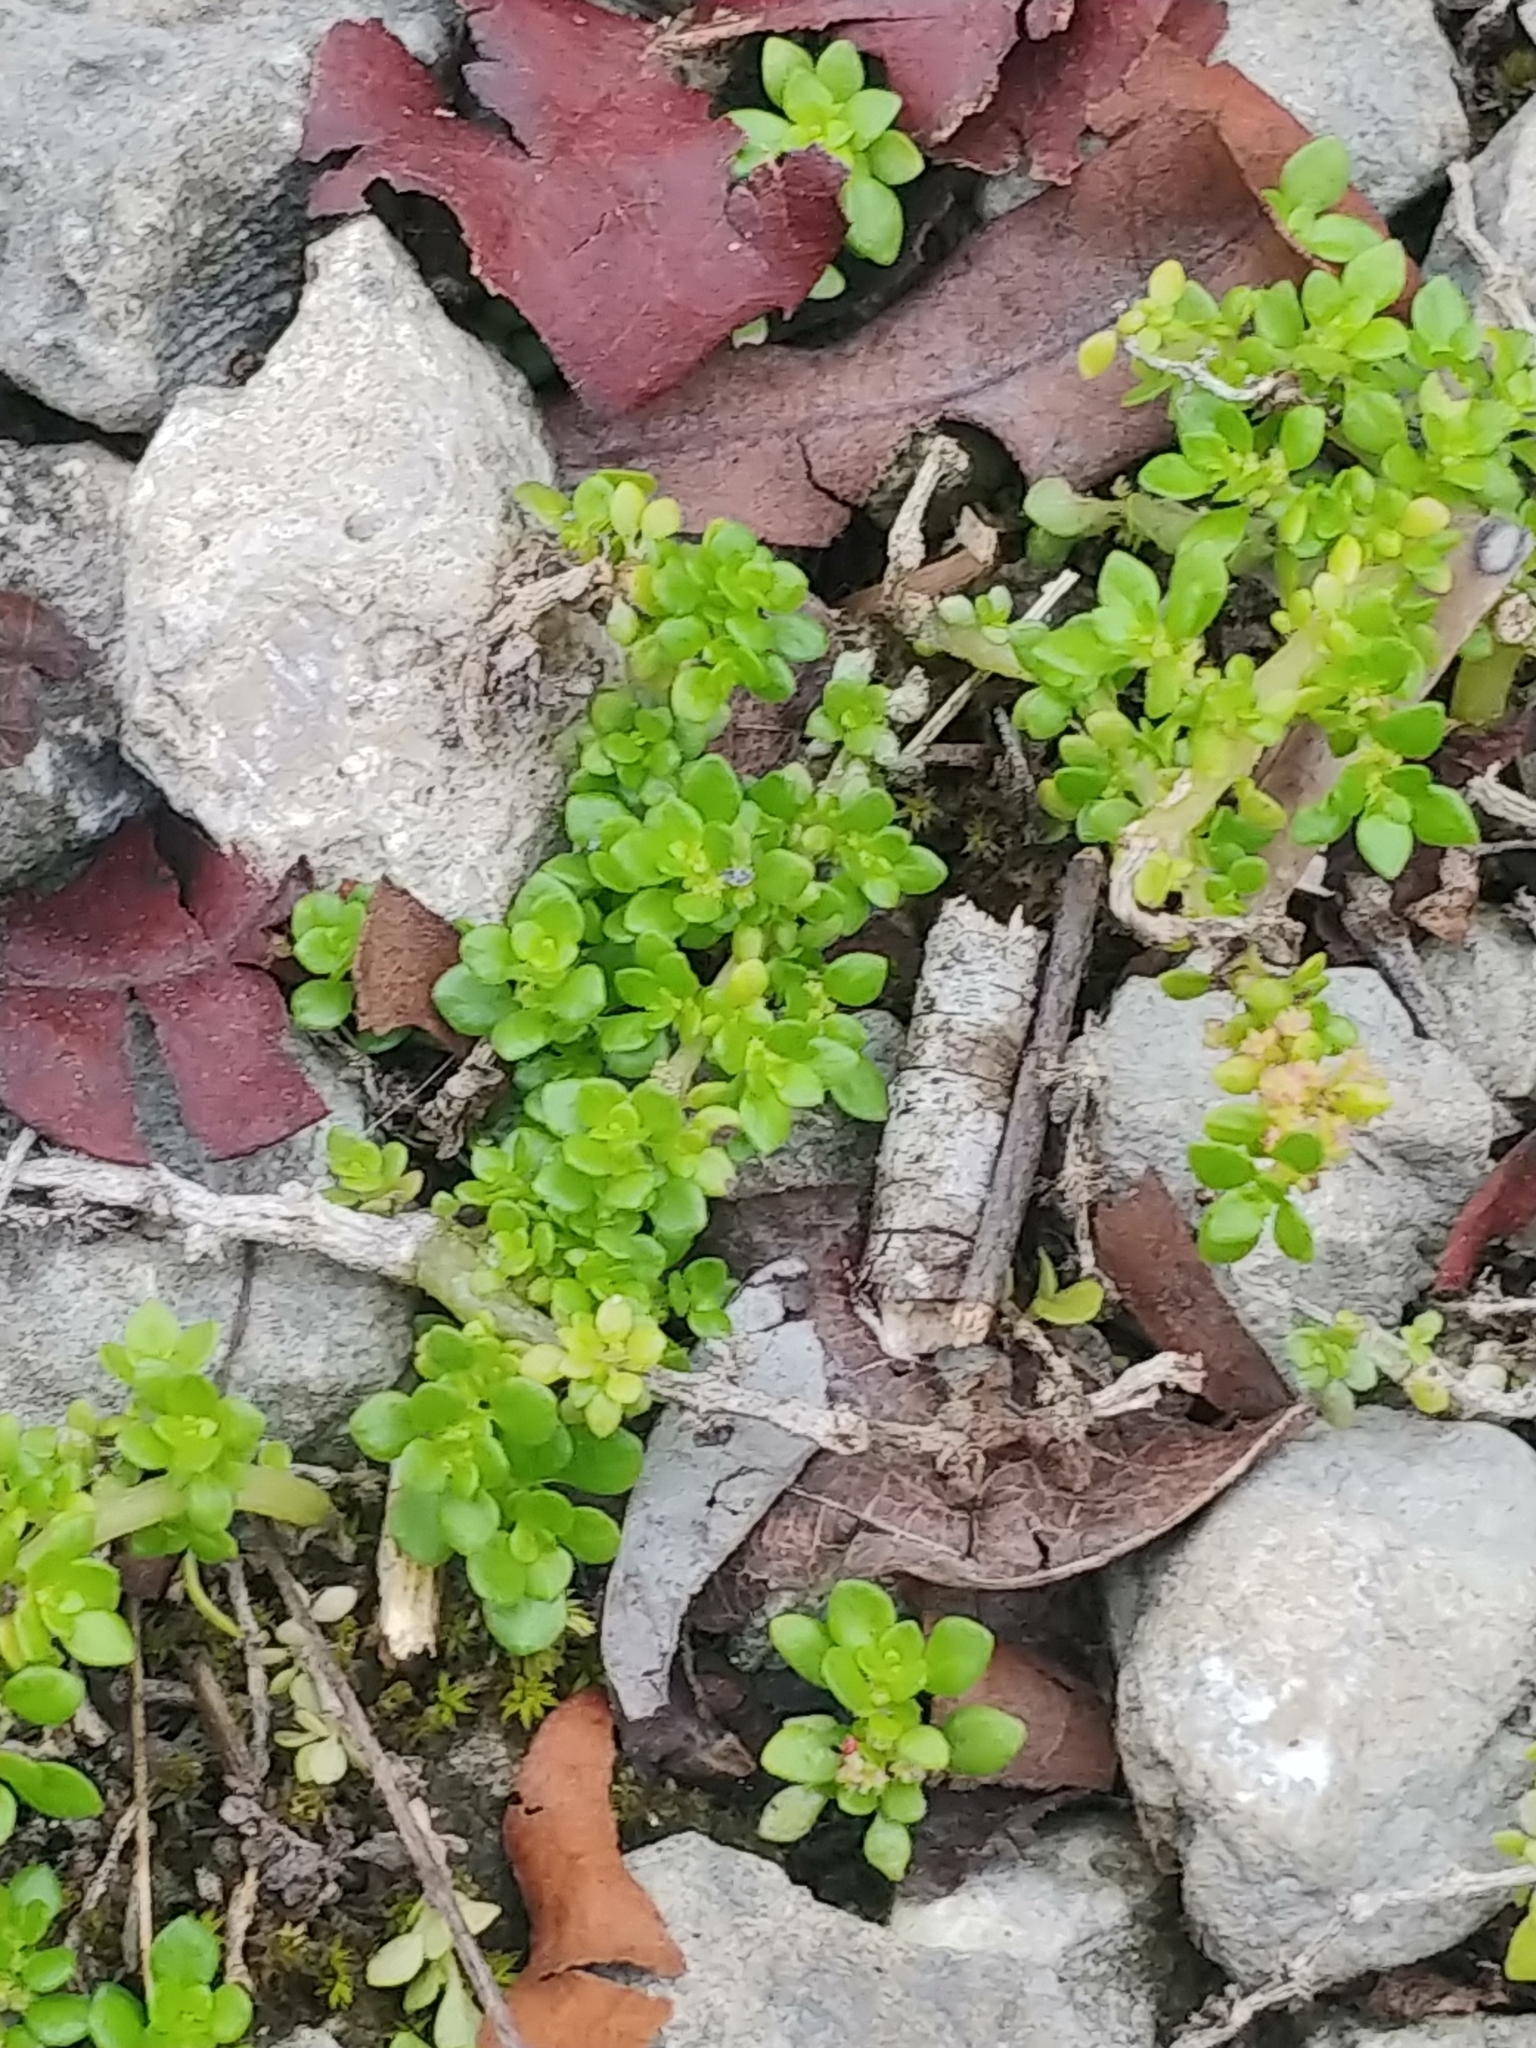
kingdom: Plantae
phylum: Tracheophyta
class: Magnoliopsida
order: Rosales
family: Urticaceae
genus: Pilea
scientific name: Pilea microphylla
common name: Artillery-plant
